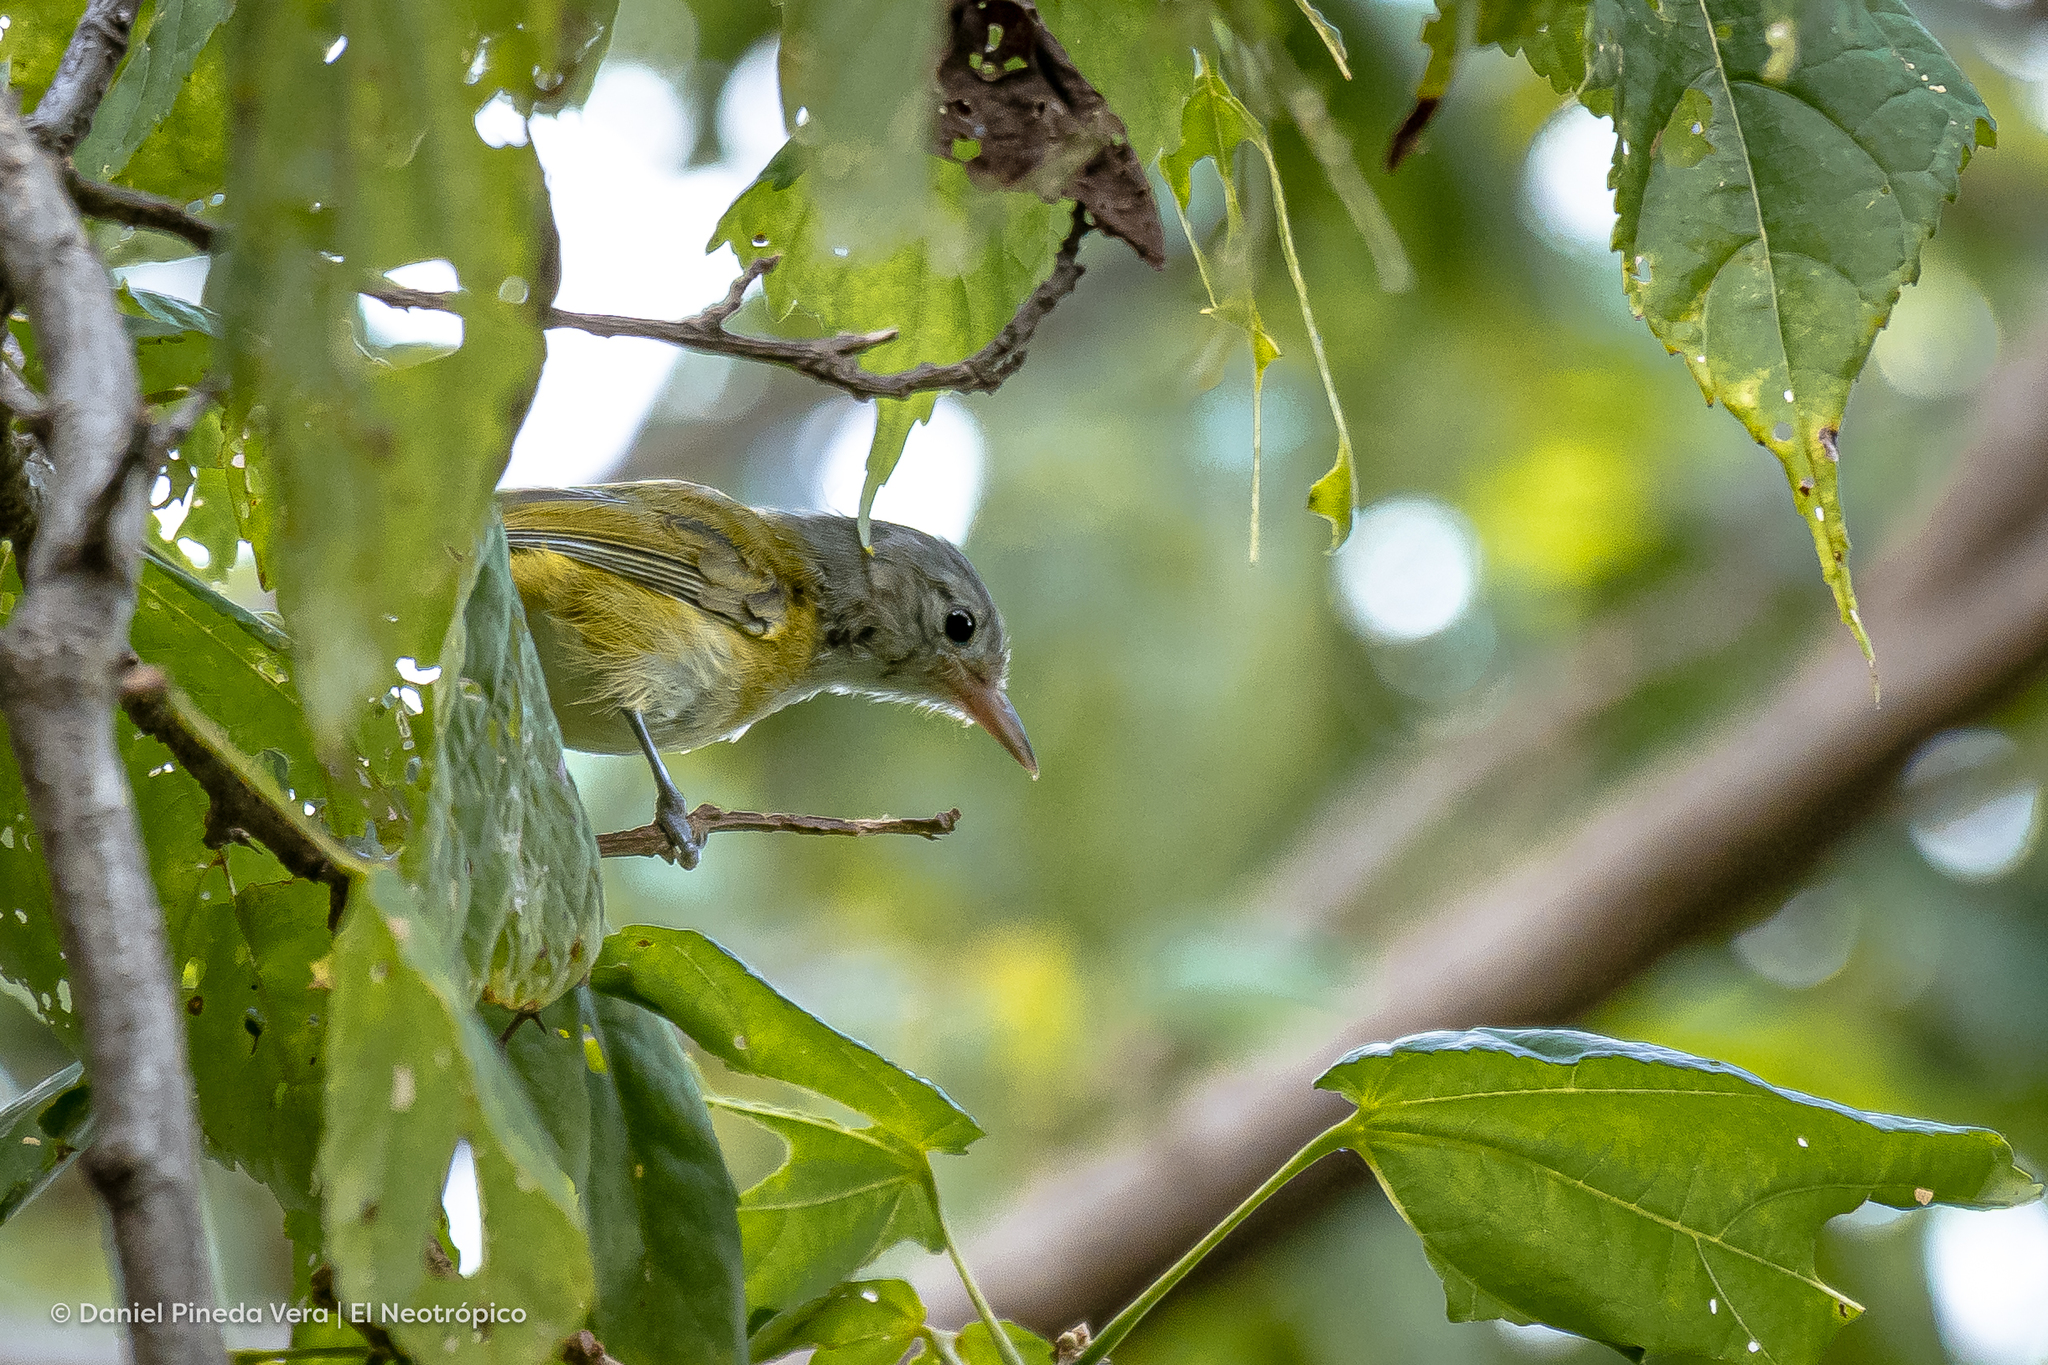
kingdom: Animalia
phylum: Chordata
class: Aves
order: Passeriformes
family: Vireonidae
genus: Hylophilus
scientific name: Hylophilus decurtatus
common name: Lesser greenlet
